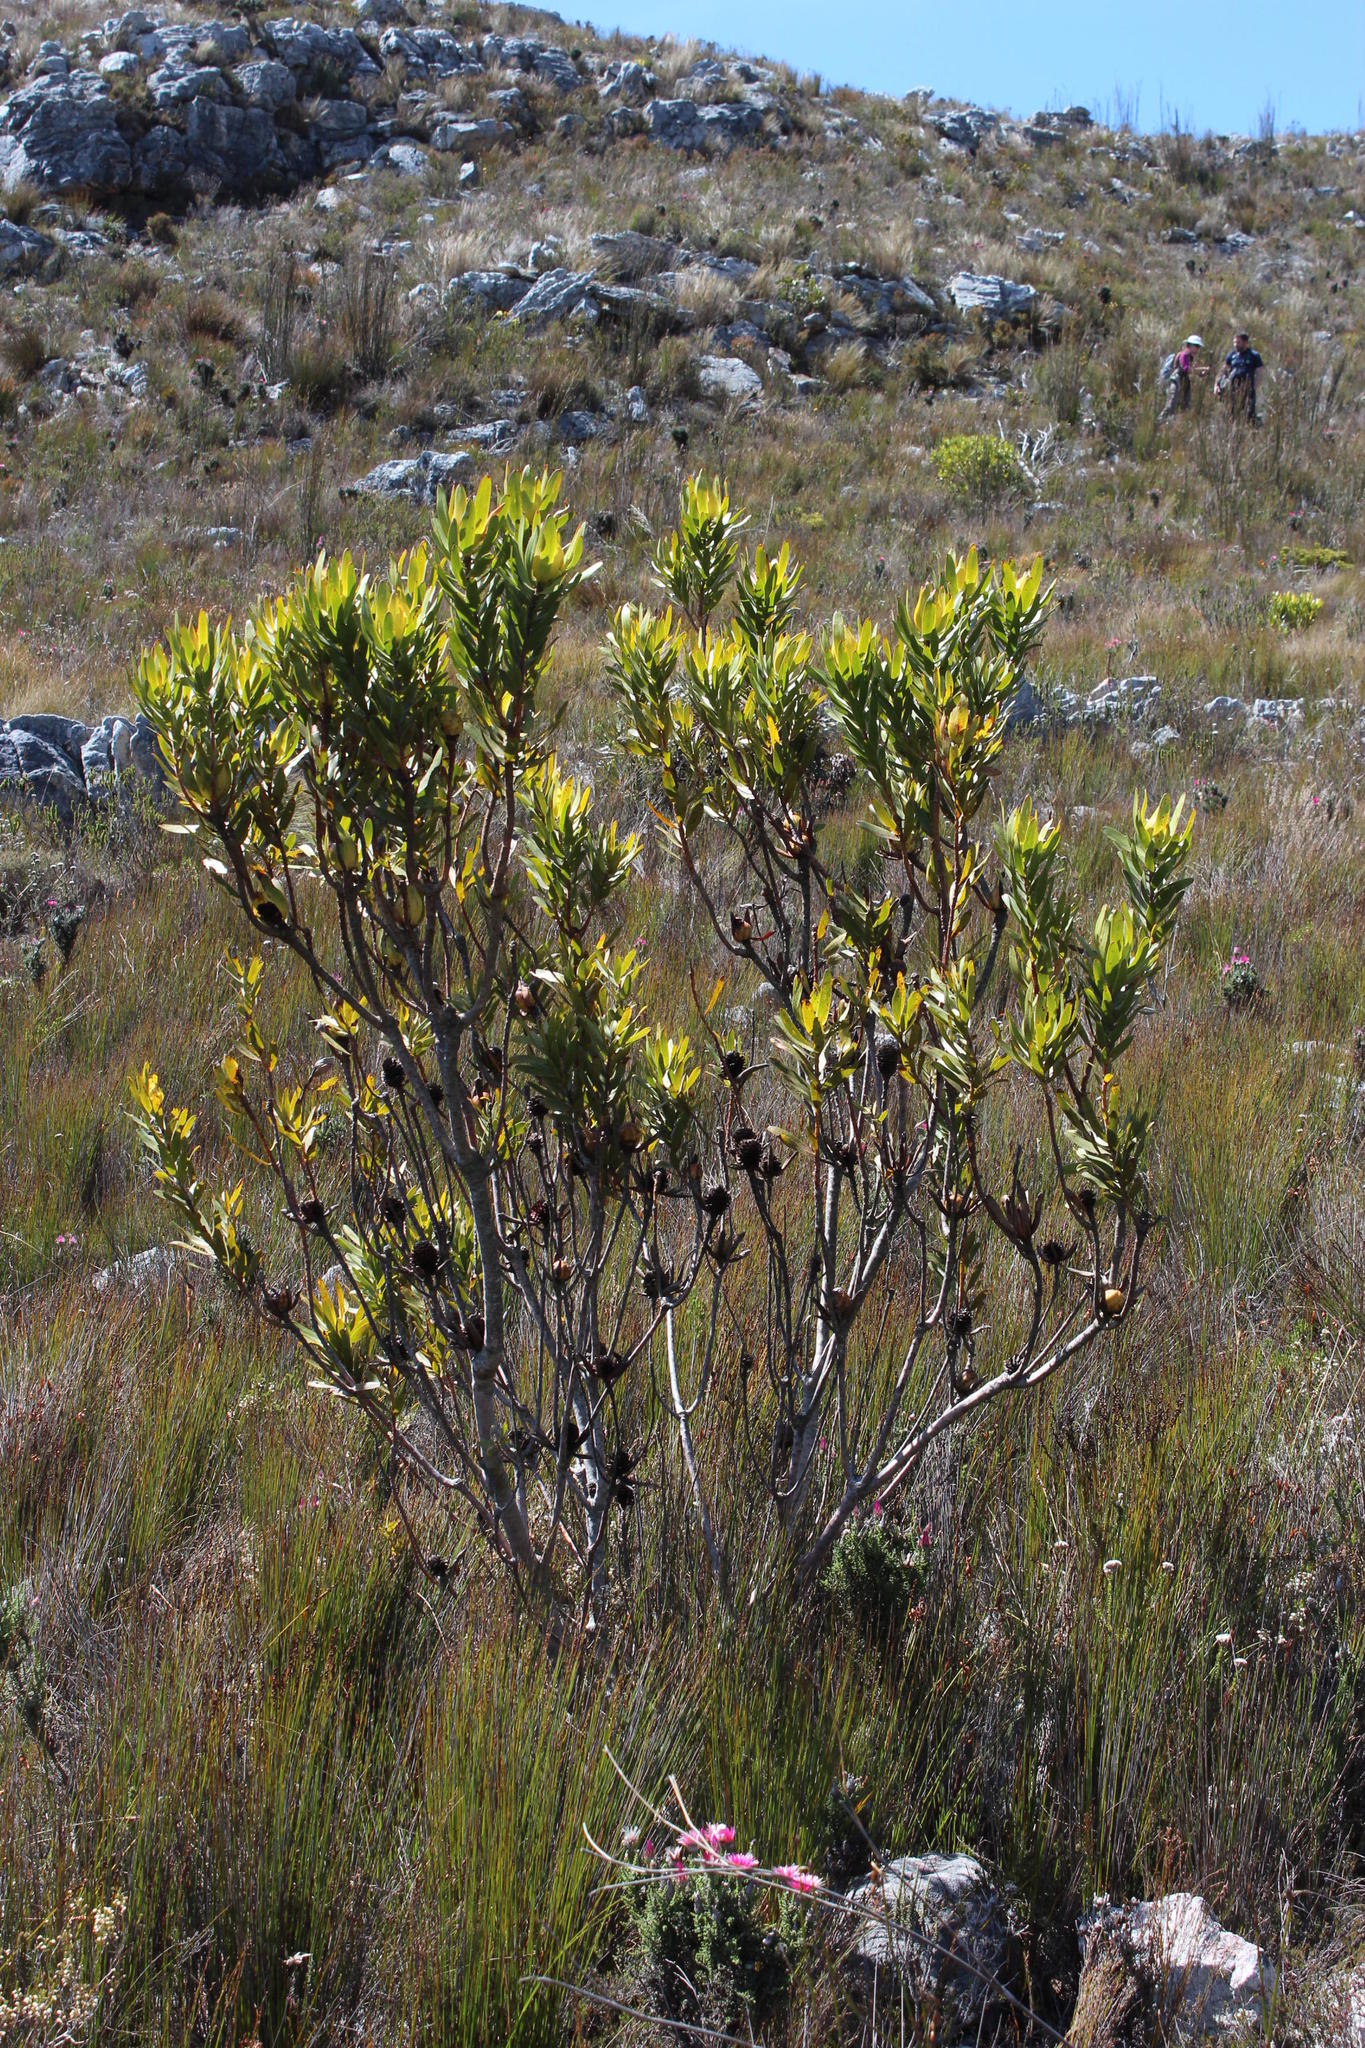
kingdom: Plantae
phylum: Tracheophyta
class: Magnoliopsida
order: Proteales
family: Proteaceae
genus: Leucadendron
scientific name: Leucadendron laureolum
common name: Golden sunshinebush
